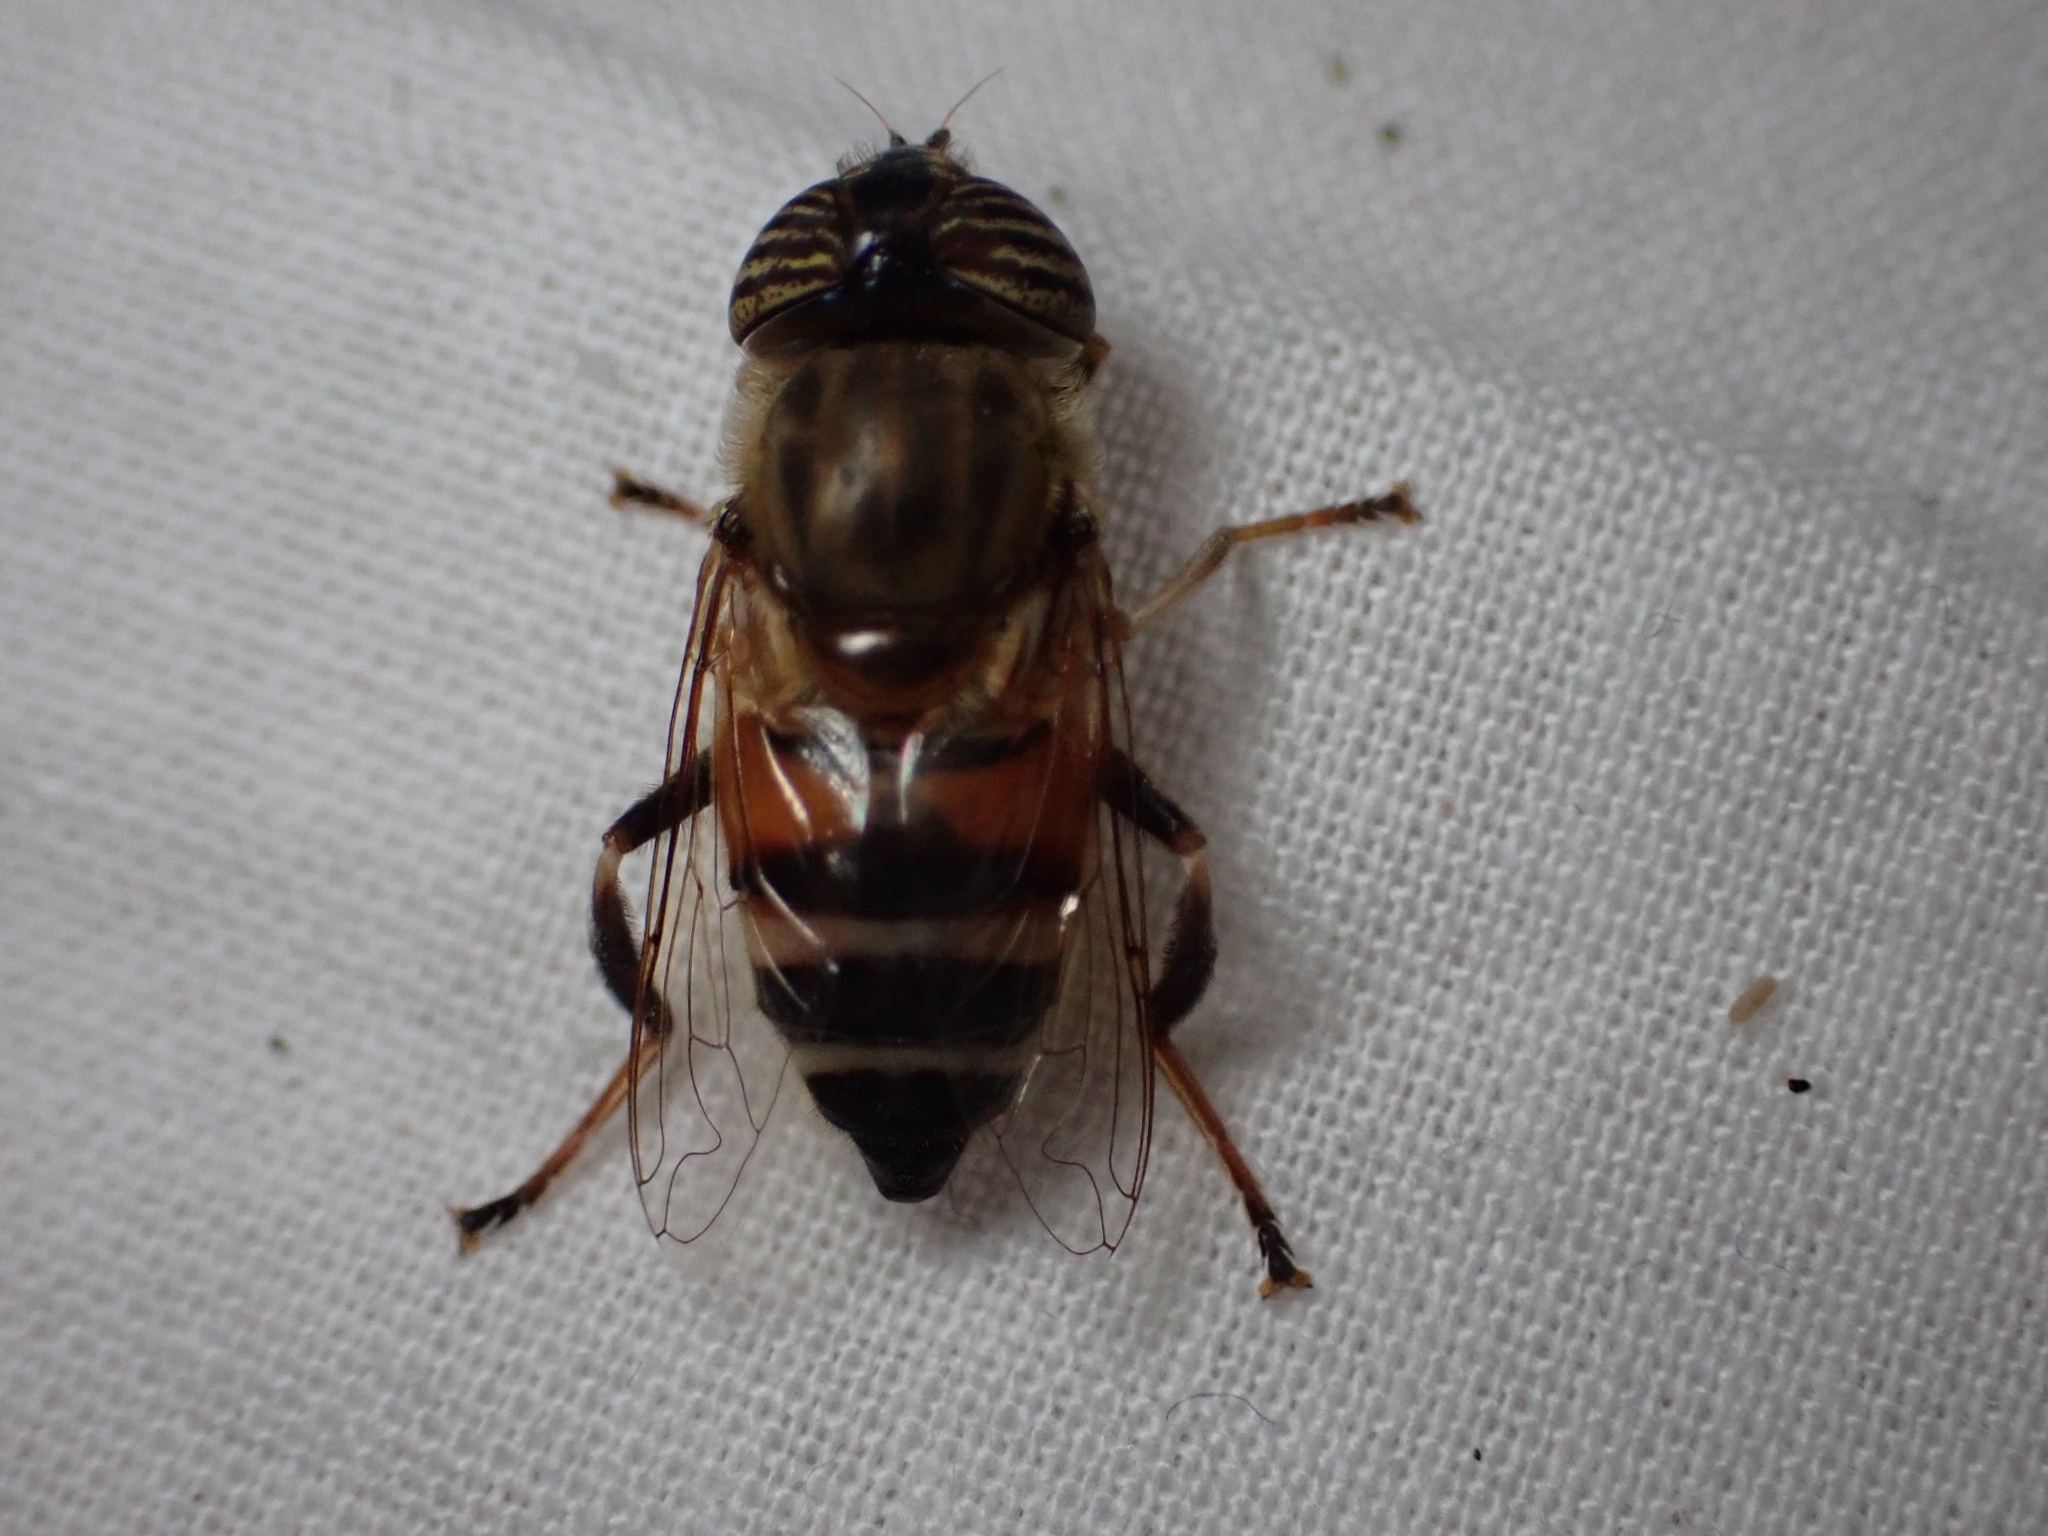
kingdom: Animalia
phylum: Arthropoda
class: Insecta
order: Diptera
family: Syrphidae
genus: Eristalinus
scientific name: Eristalinus taeniops
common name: Syrphid fly
